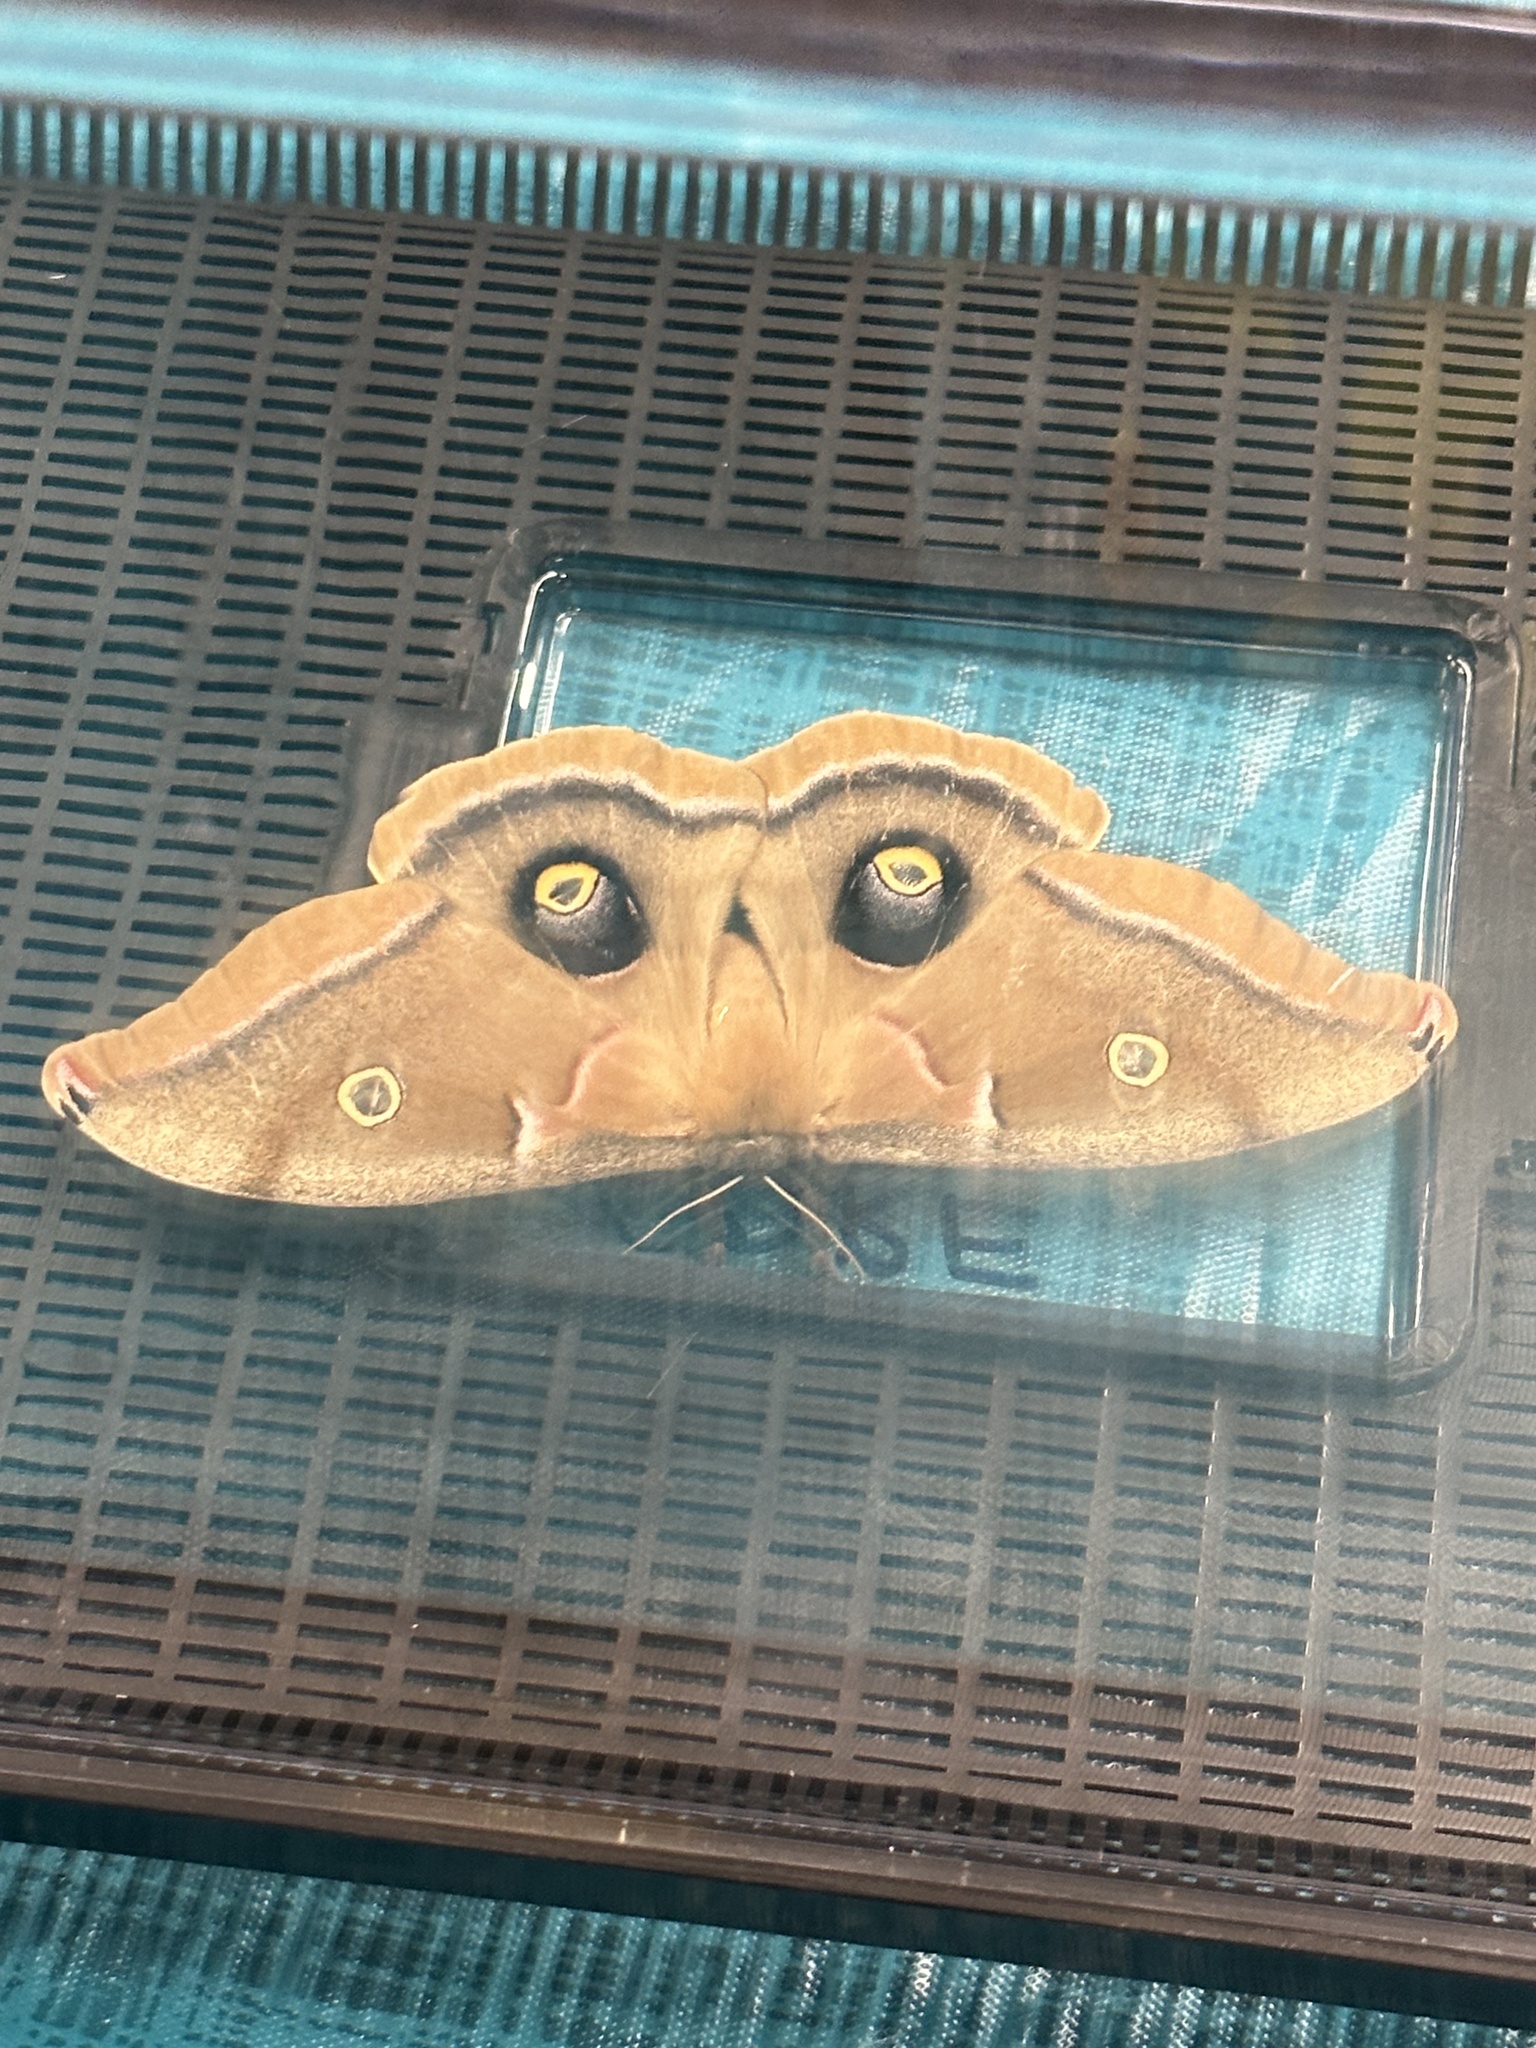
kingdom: Animalia
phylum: Arthropoda
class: Insecta
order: Lepidoptera
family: Saturniidae
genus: Antheraea
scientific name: Antheraea polyphemus
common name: Polyphemus moth
